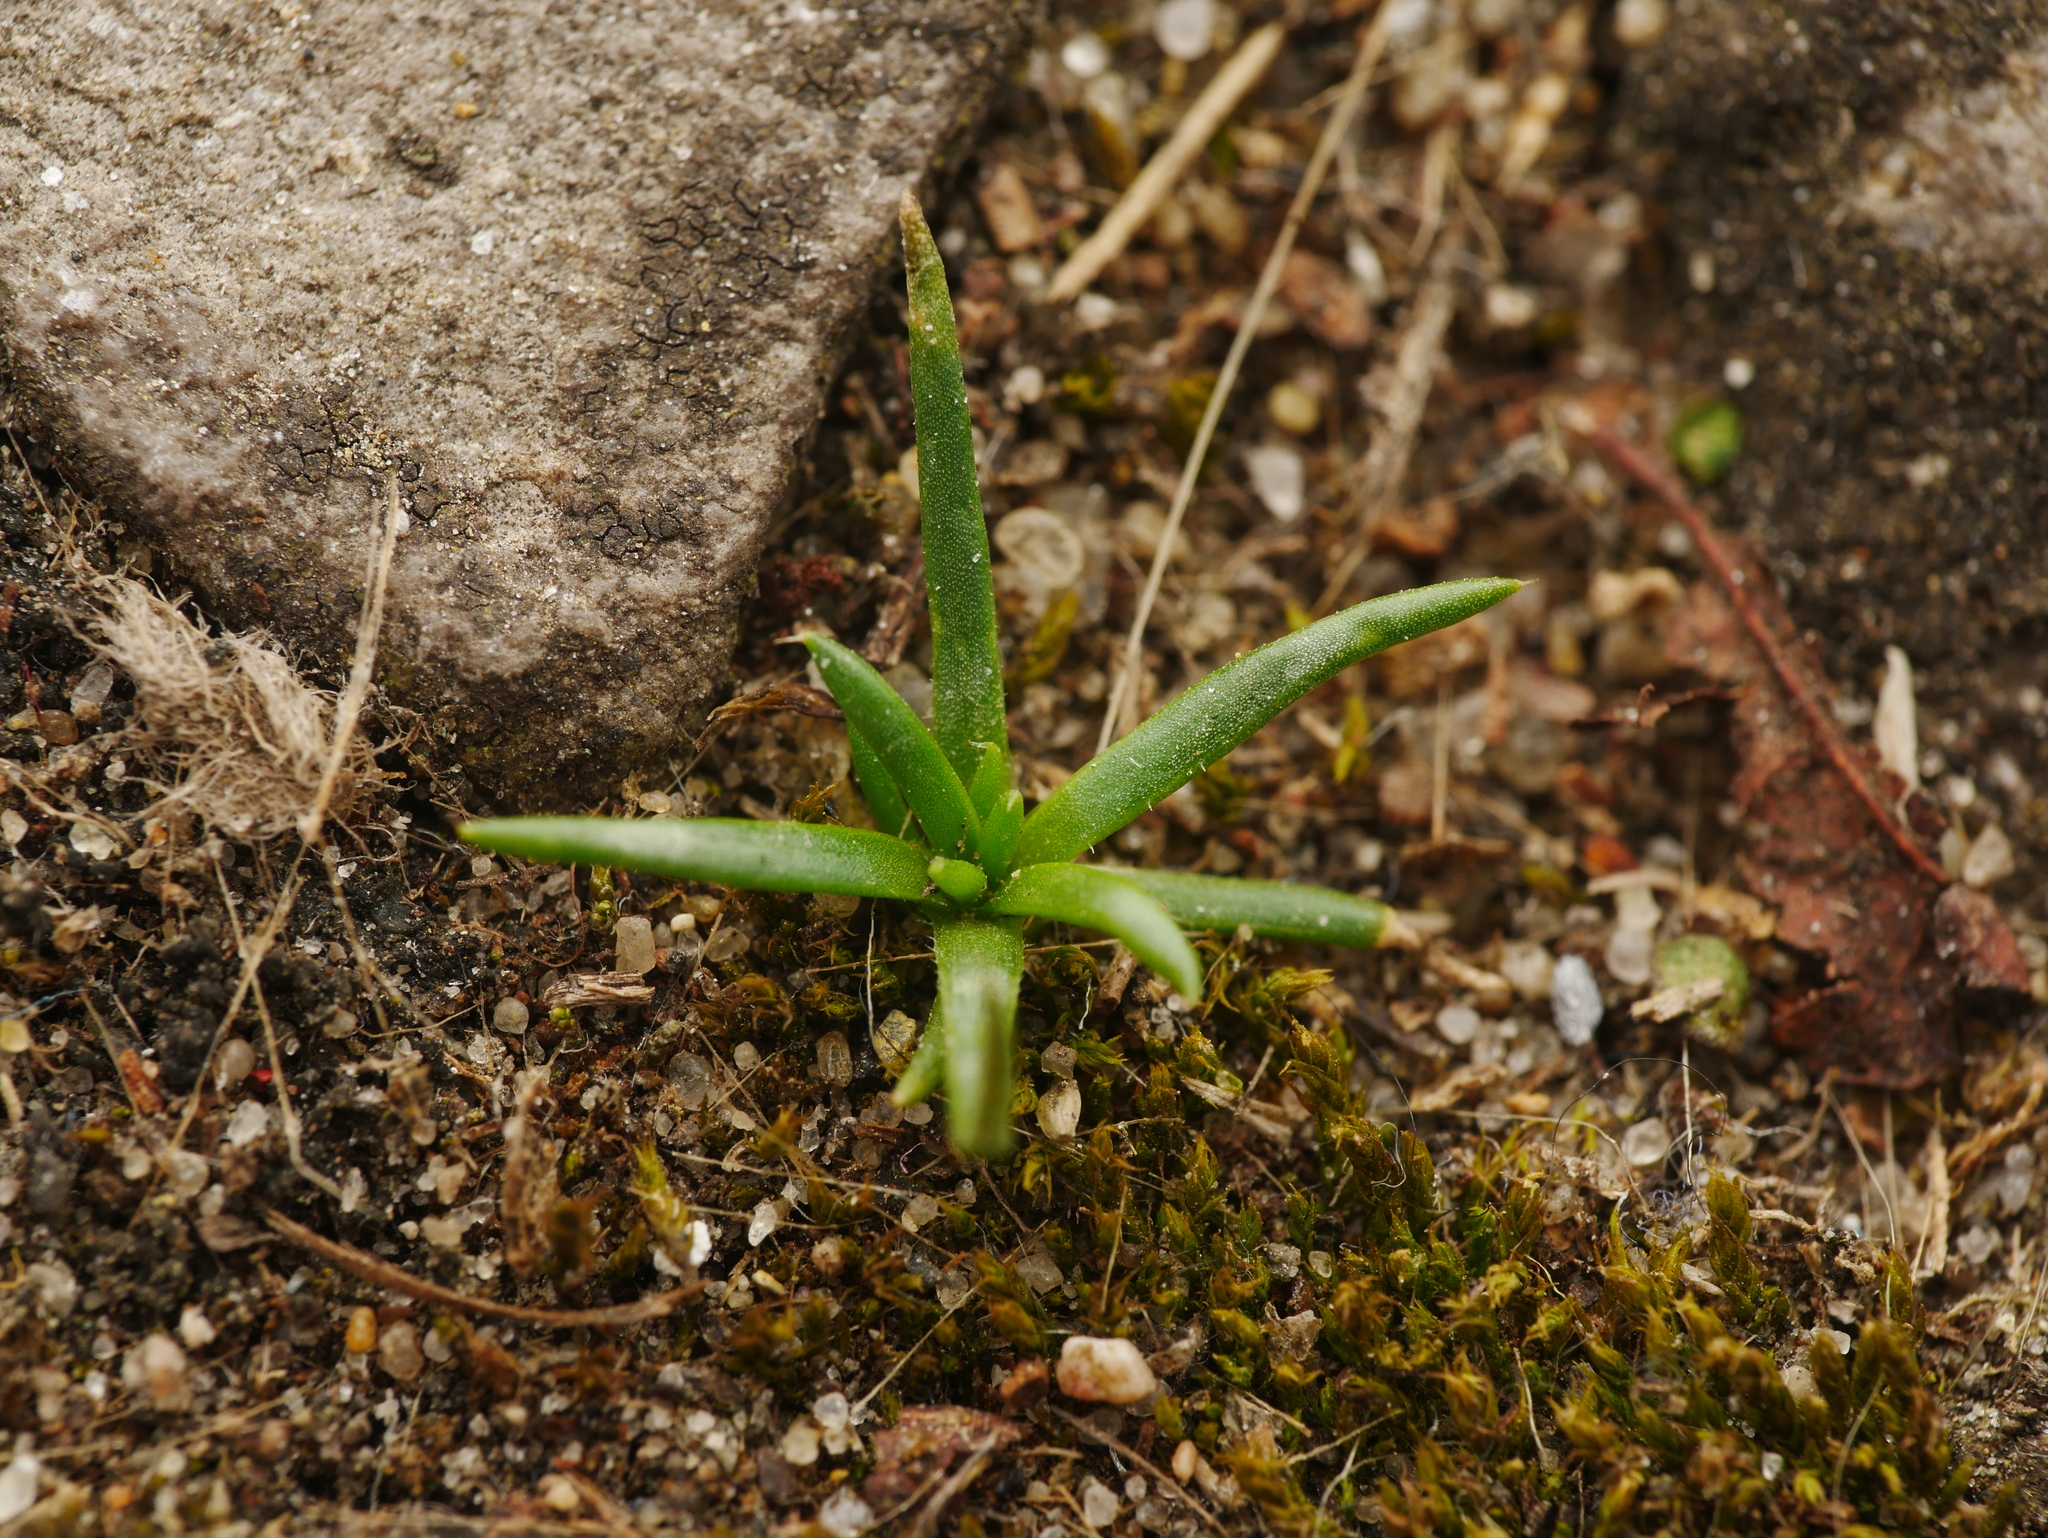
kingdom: Plantae
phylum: Tracheophyta
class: Magnoliopsida
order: Caryophyllales
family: Caryophyllaceae
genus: Sagina
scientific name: Sagina procumbens
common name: Procumbent pearlwort
